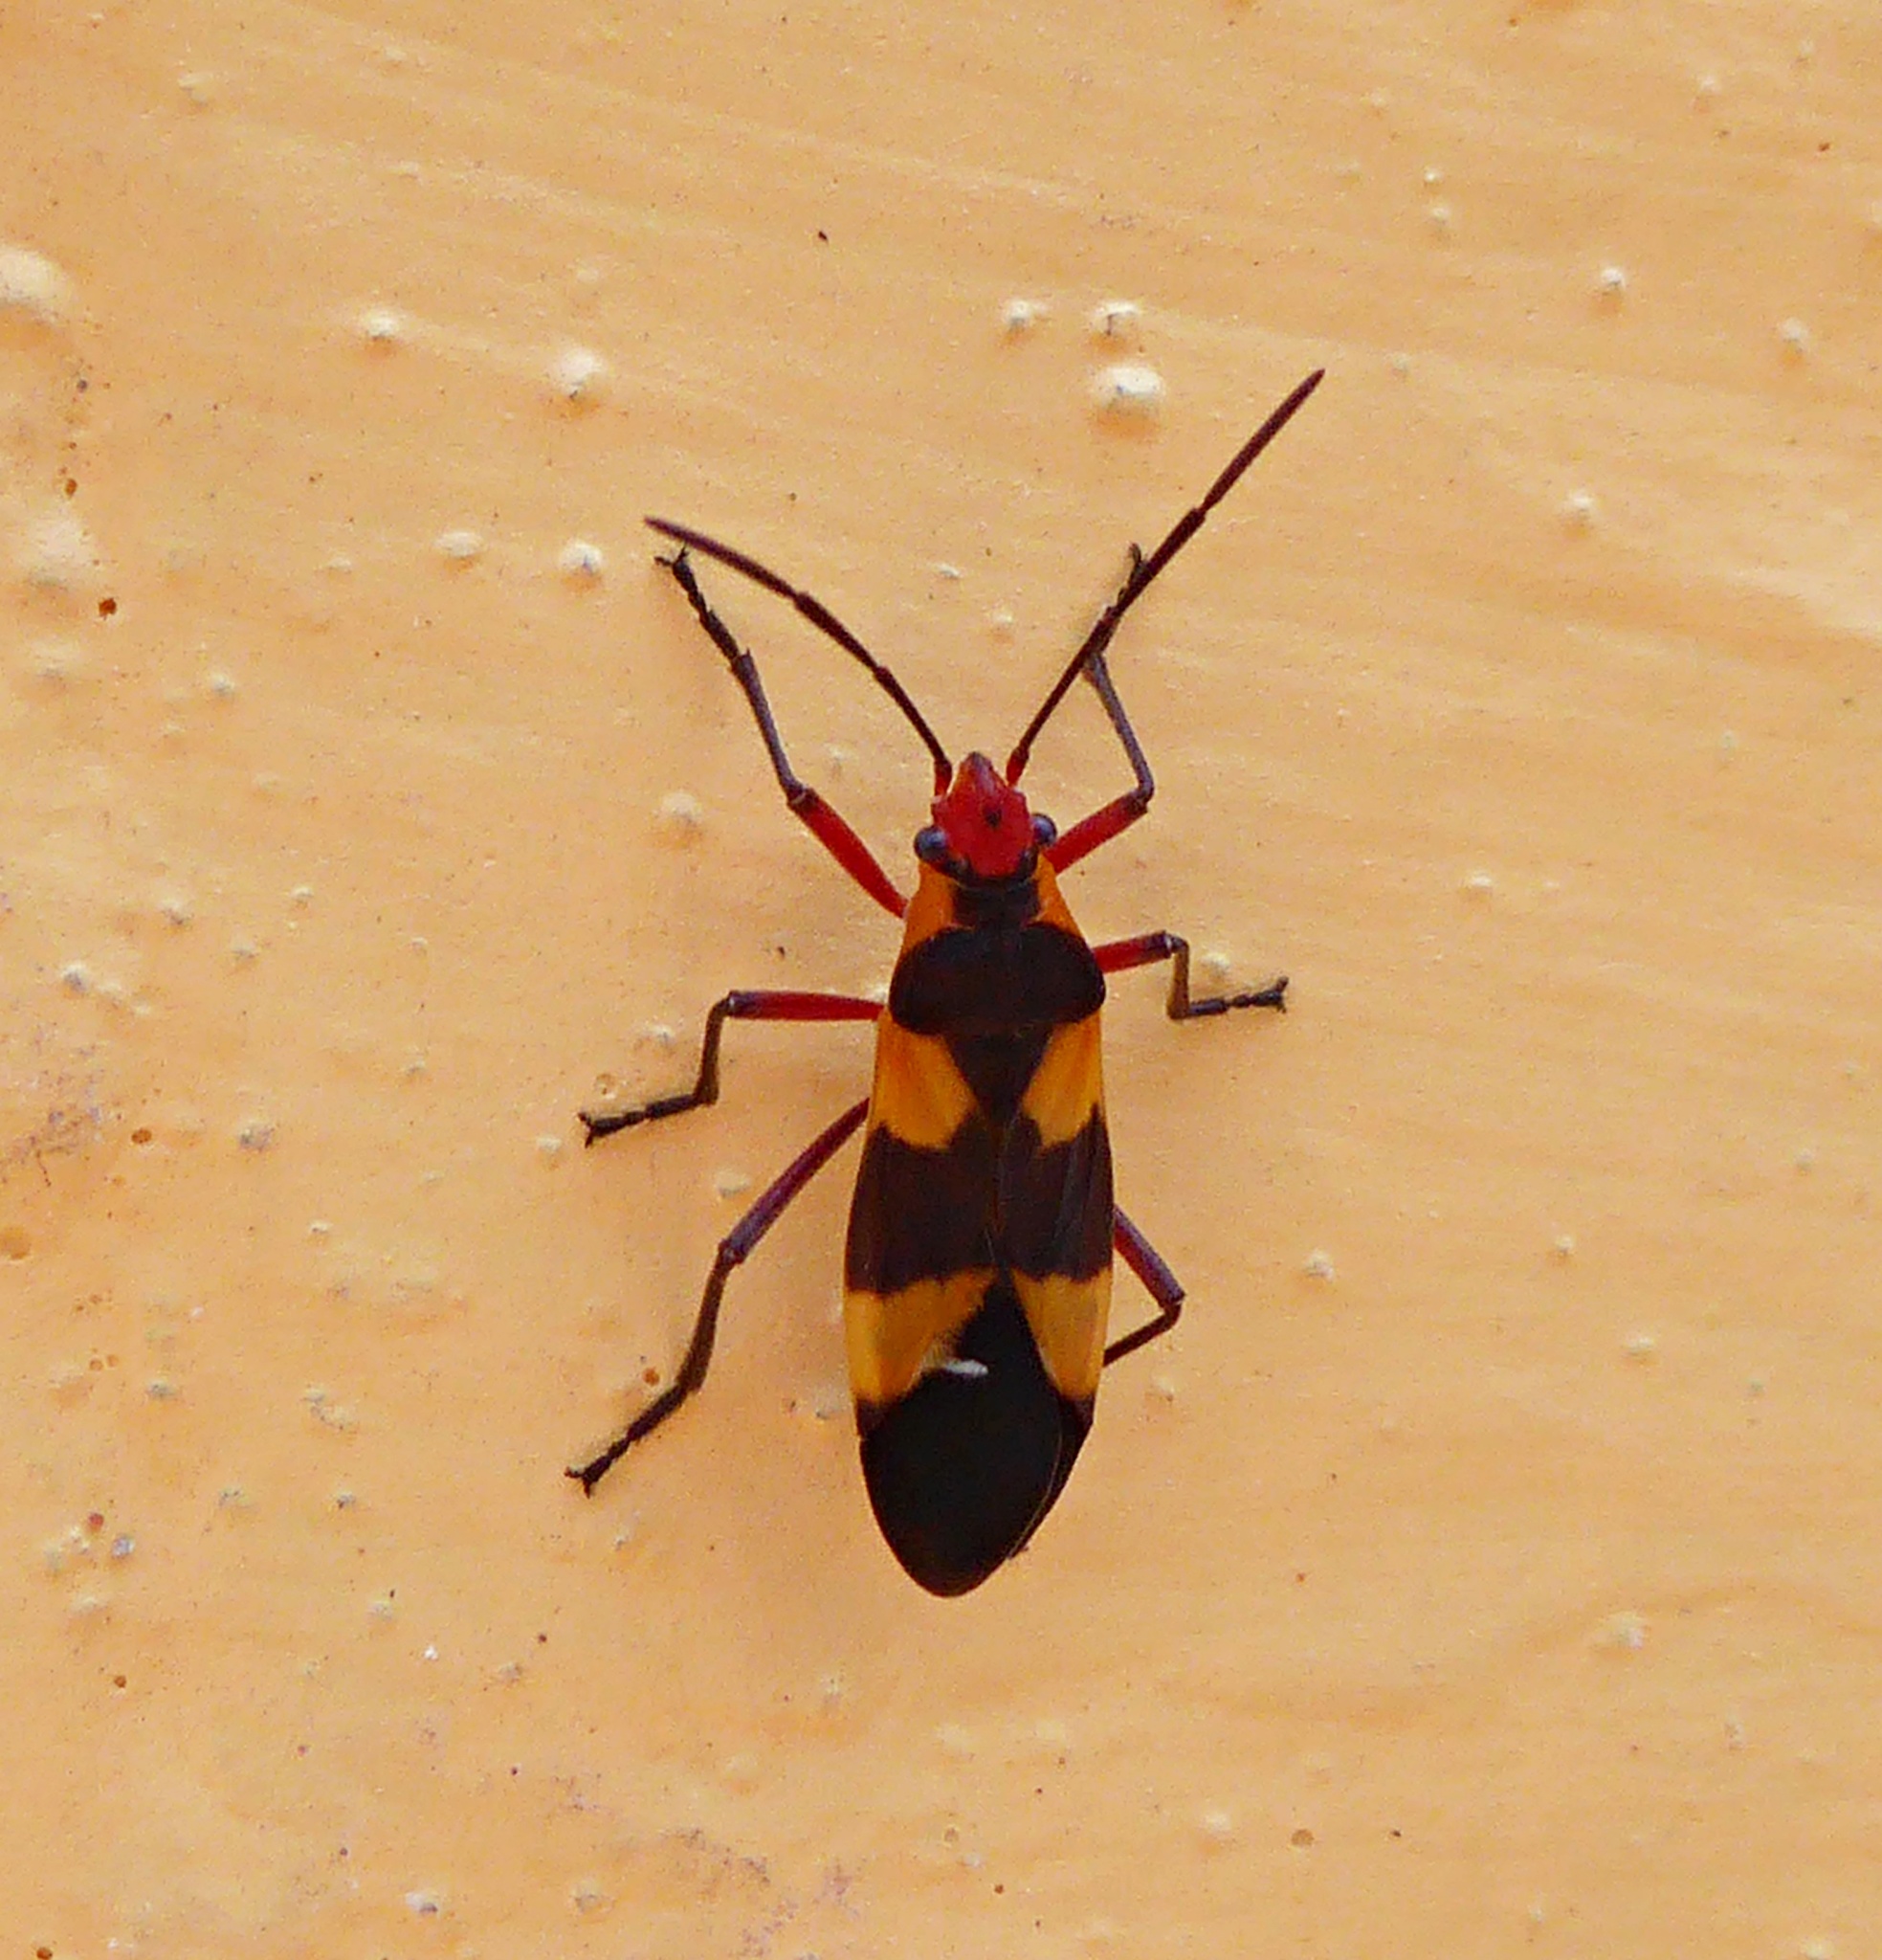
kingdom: Animalia
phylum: Arthropoda
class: Insecta
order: Hemiptera
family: Lygaeidae
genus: Oncopeltus
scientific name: Oncopeltus semilimbatus
